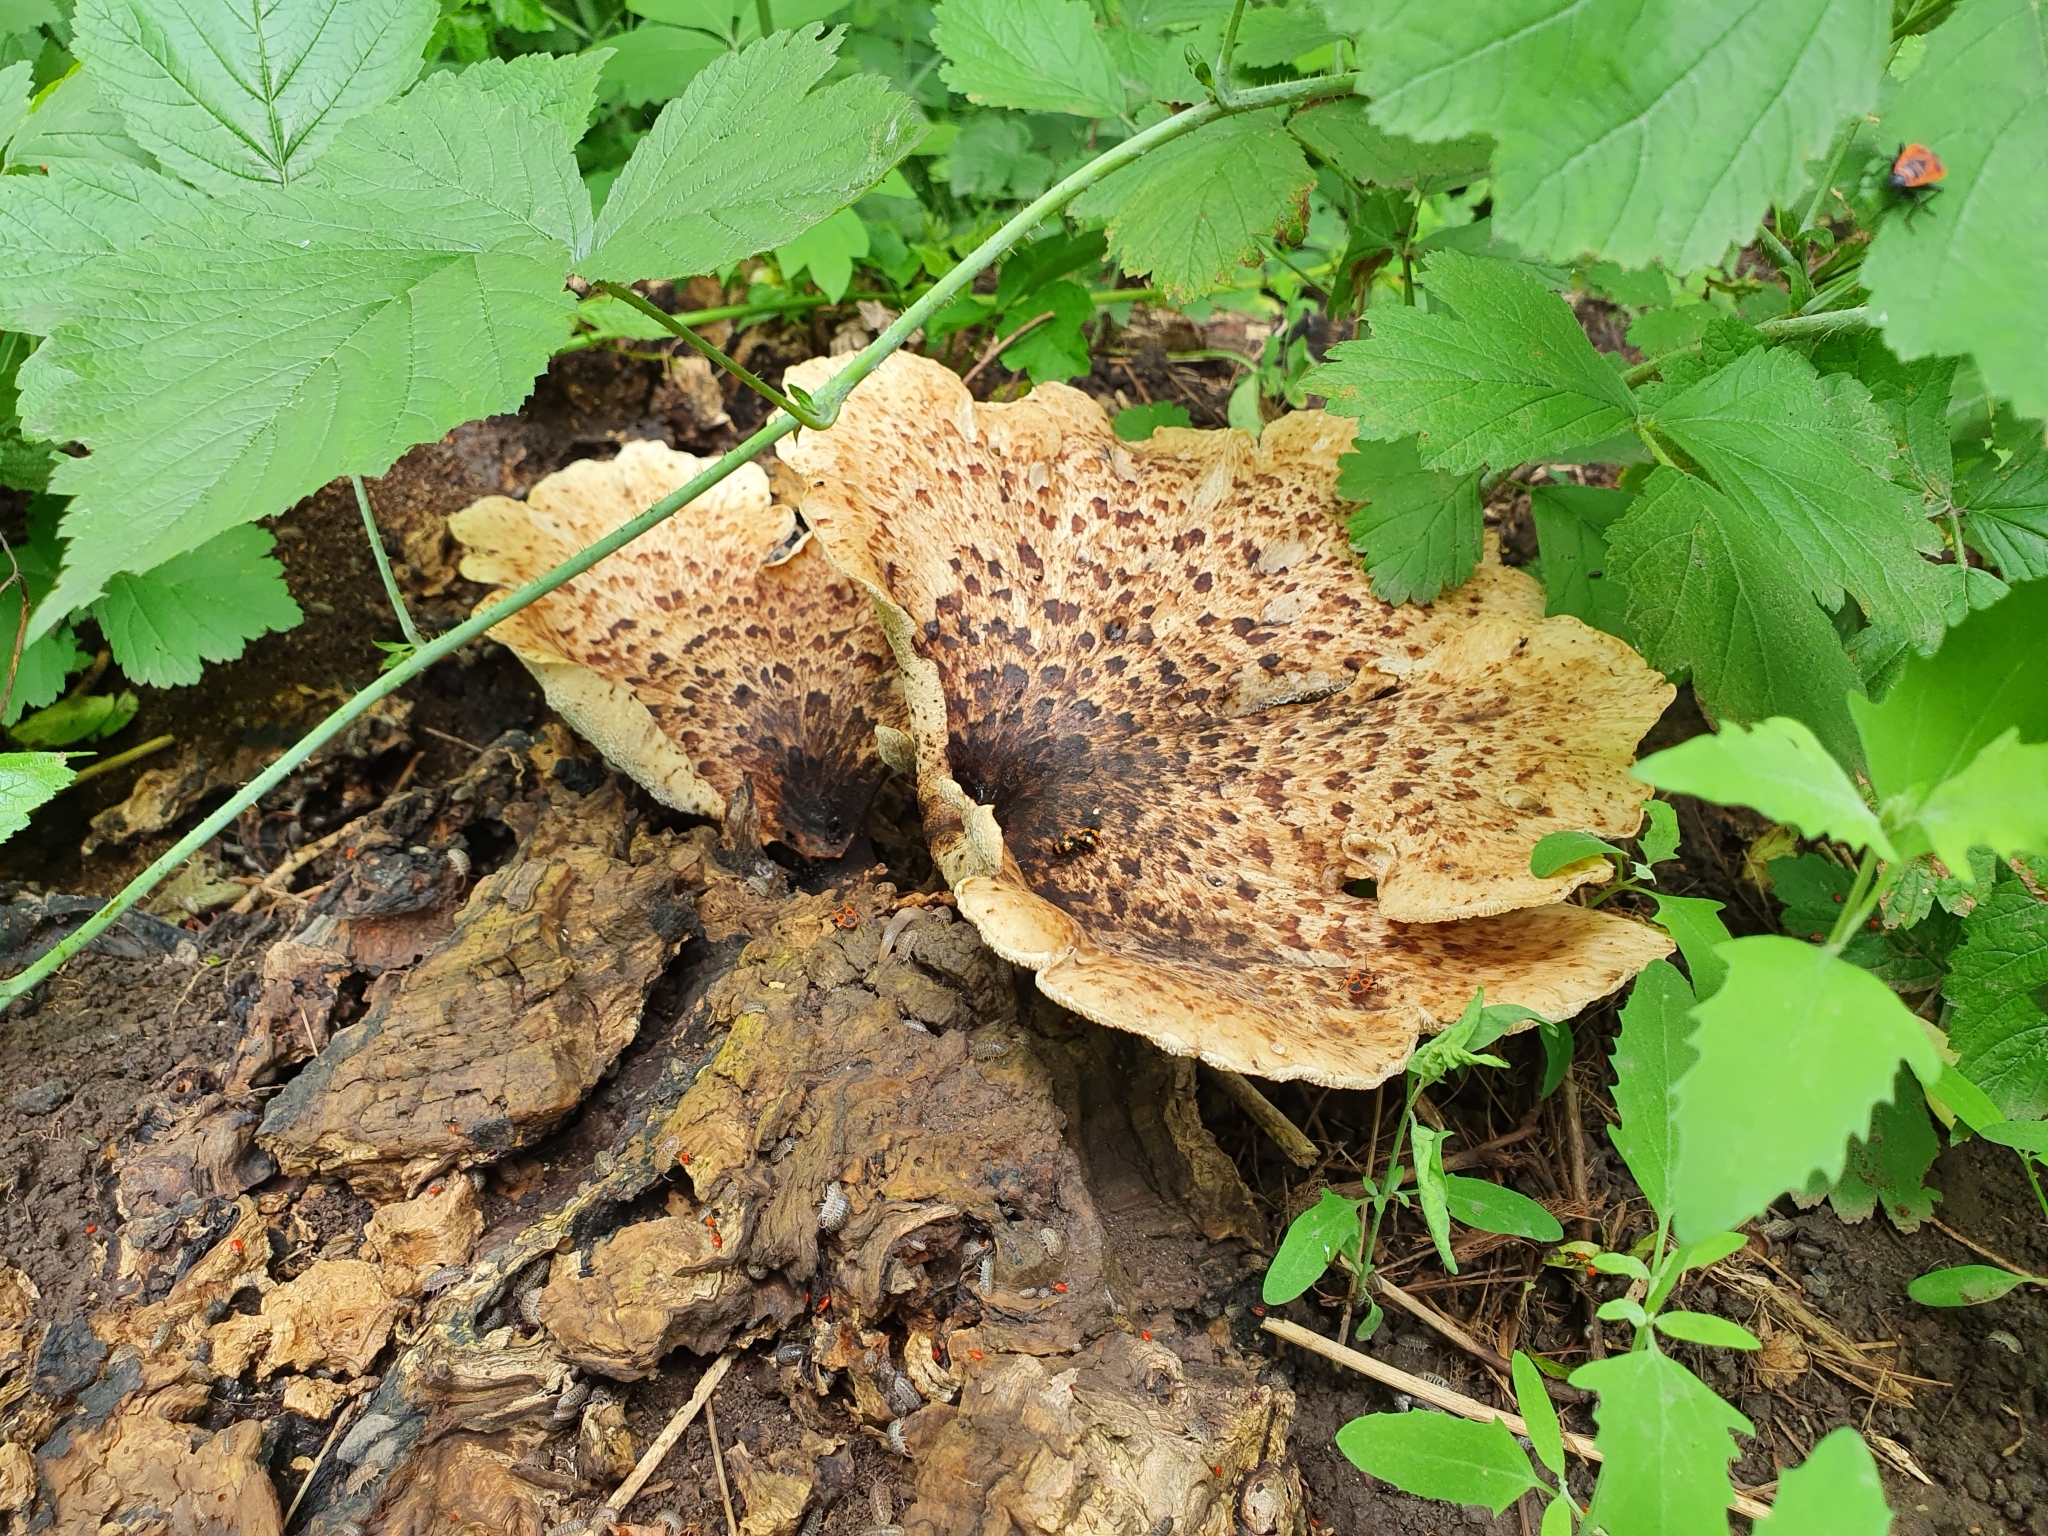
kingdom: Fungi
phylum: Basidiomycota
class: Agaricomycetes
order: Polyporales
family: Polyporaceae
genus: Cerioporus
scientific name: Cerioporus squamosus
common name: Dryad's saddle
